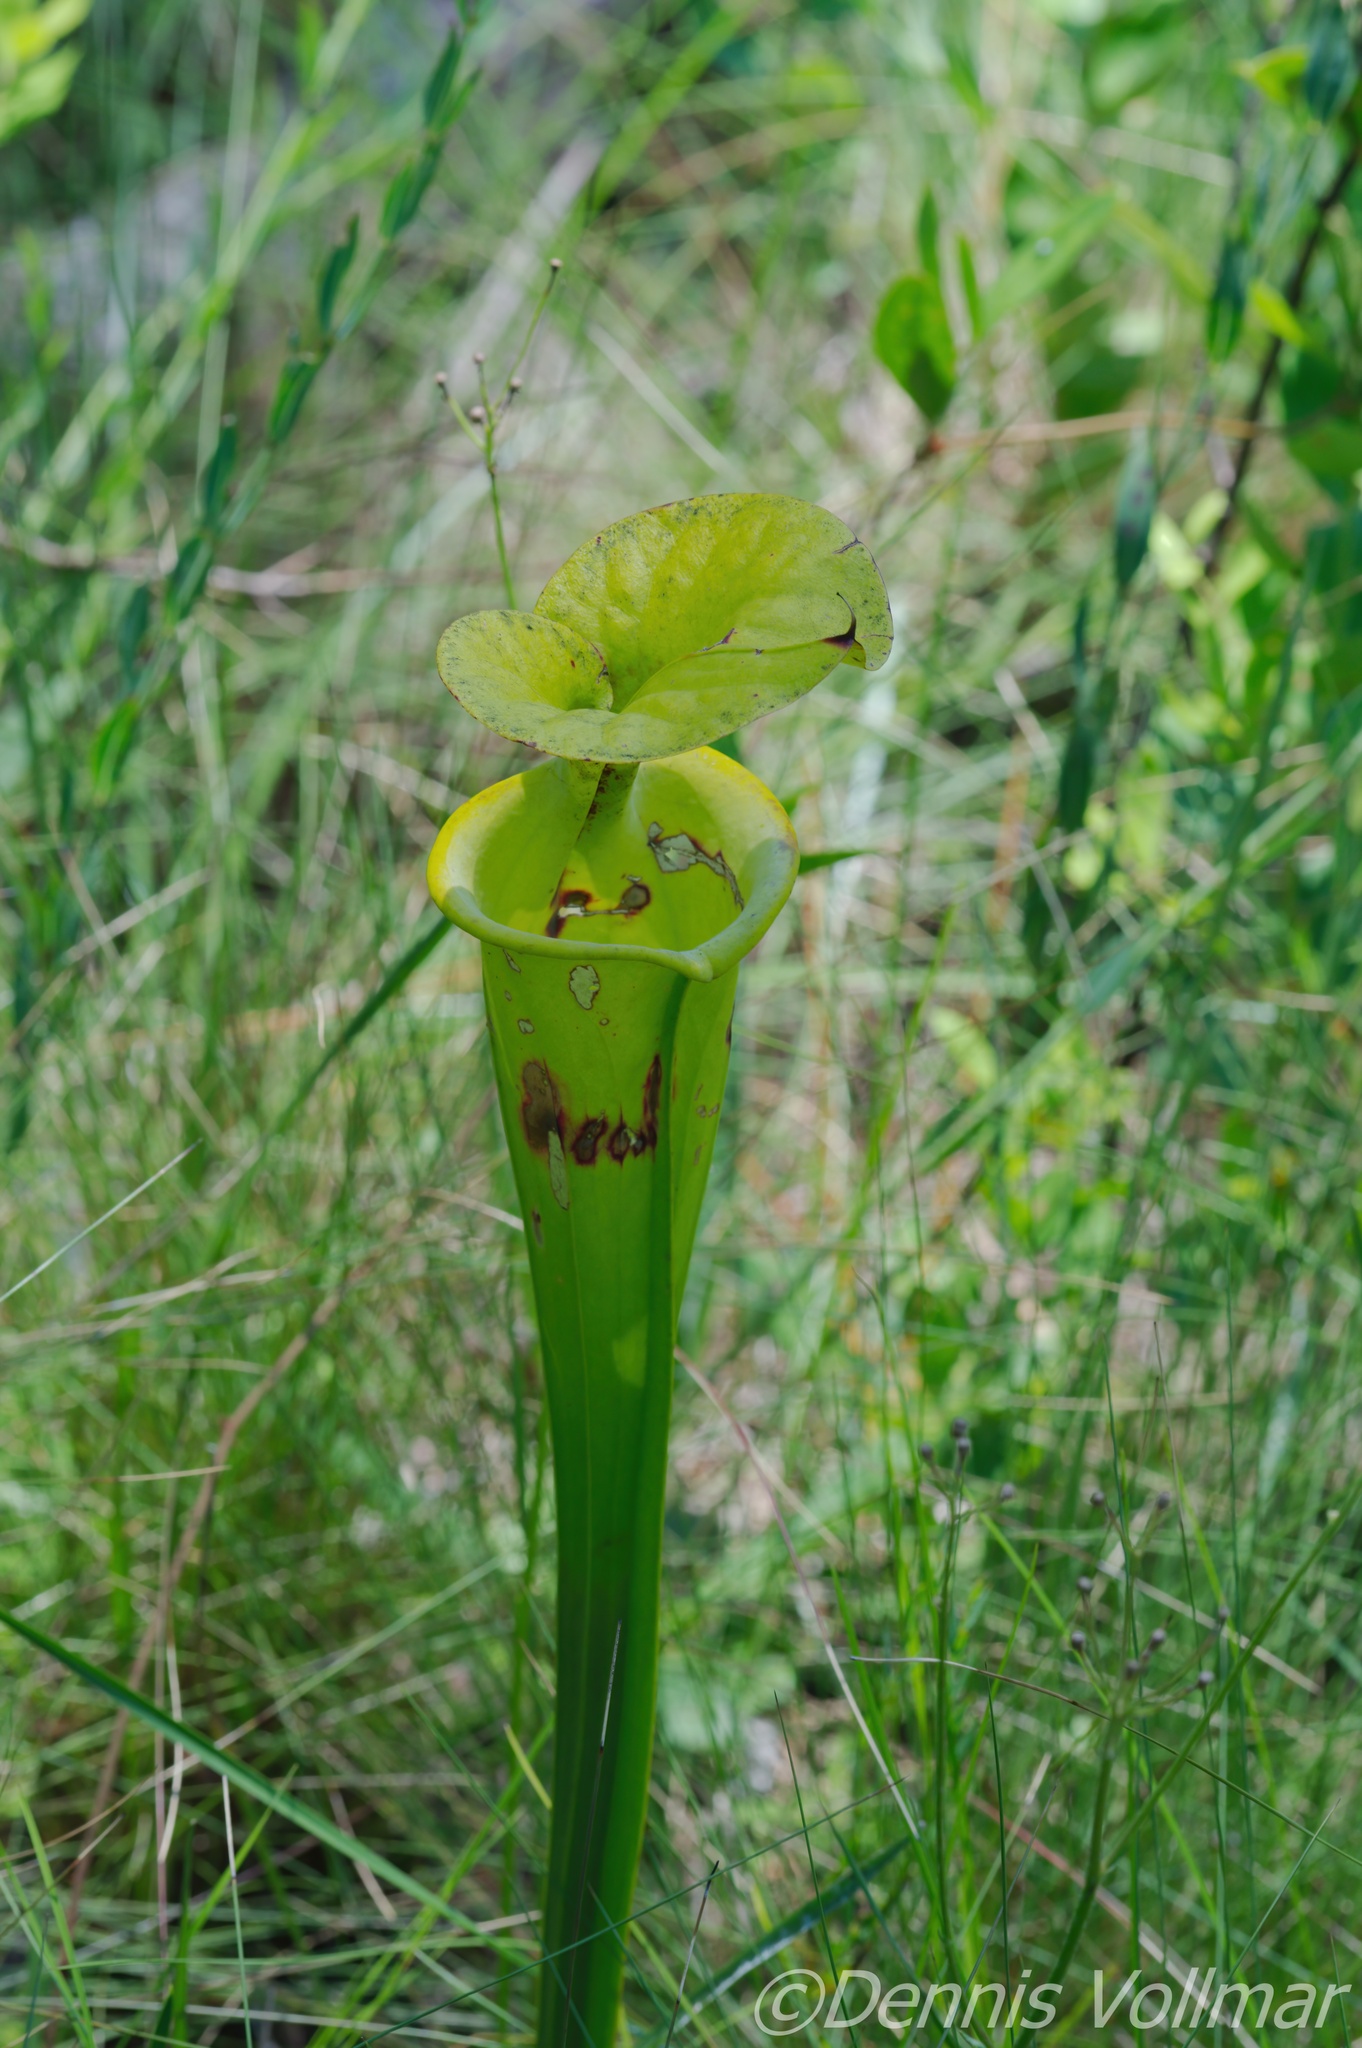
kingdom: Plantae
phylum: Tracheophyta
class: Magnoliopsida
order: Ericales
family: Sarraceniaceae
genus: Sarracenia
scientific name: Sarracenia flava
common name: Trumpets
